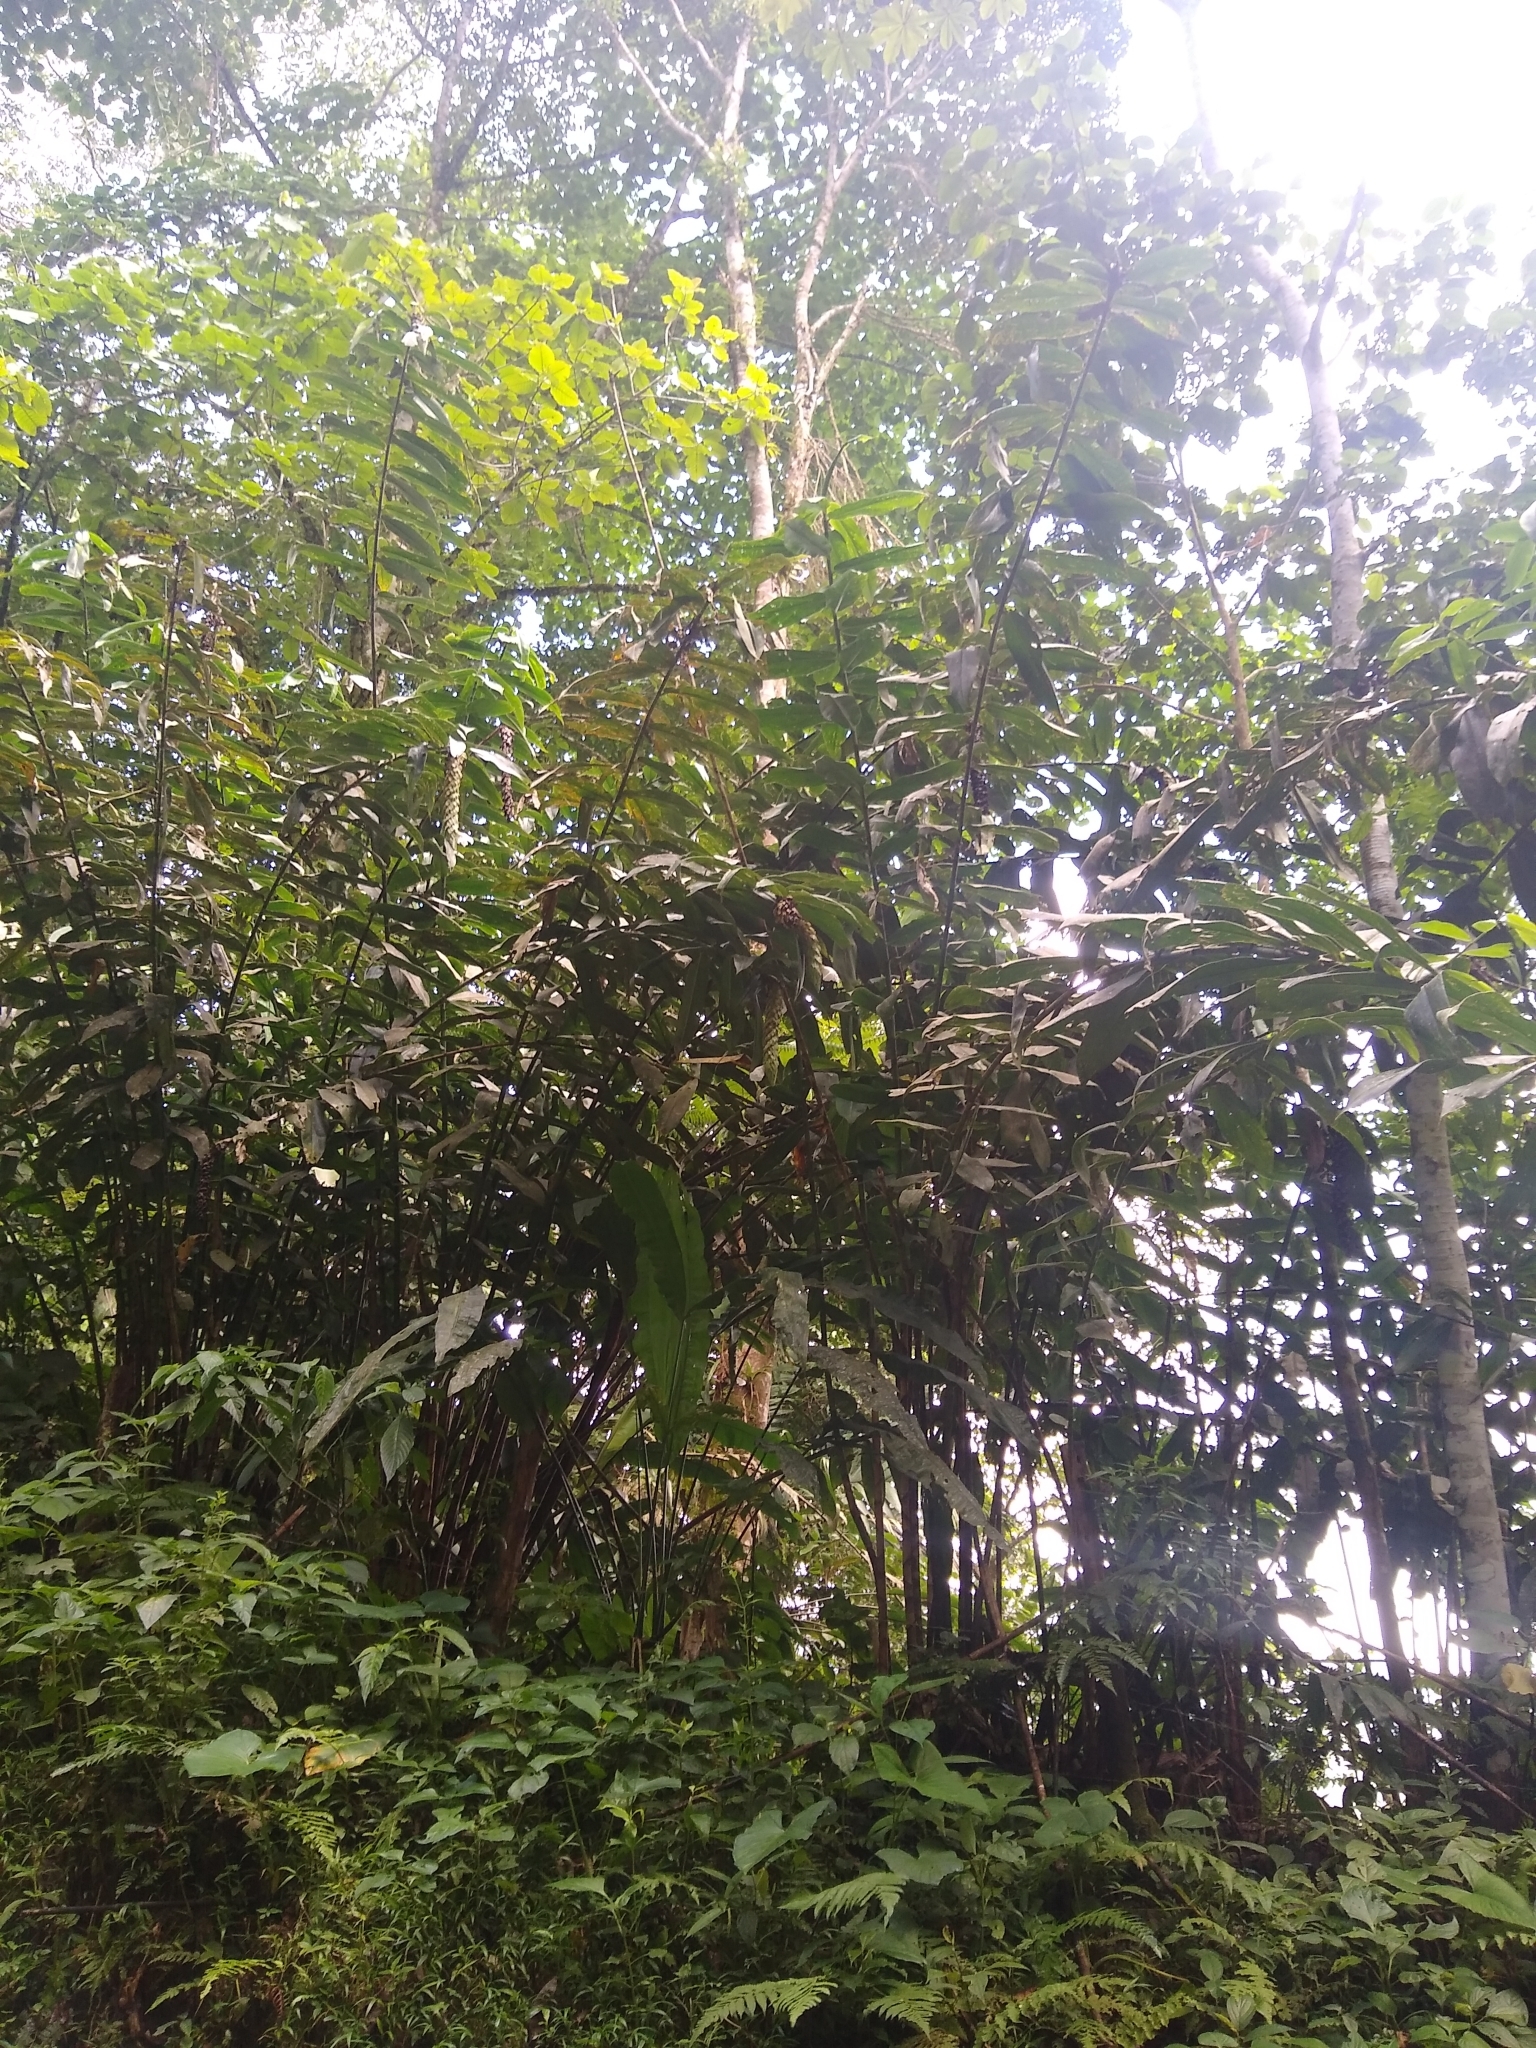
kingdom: Plantae
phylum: Tracheophyta
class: Liliopsida
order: Zingiberales
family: Costaceae
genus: Dimerocostus
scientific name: Dimerocostus cryptocalyx
